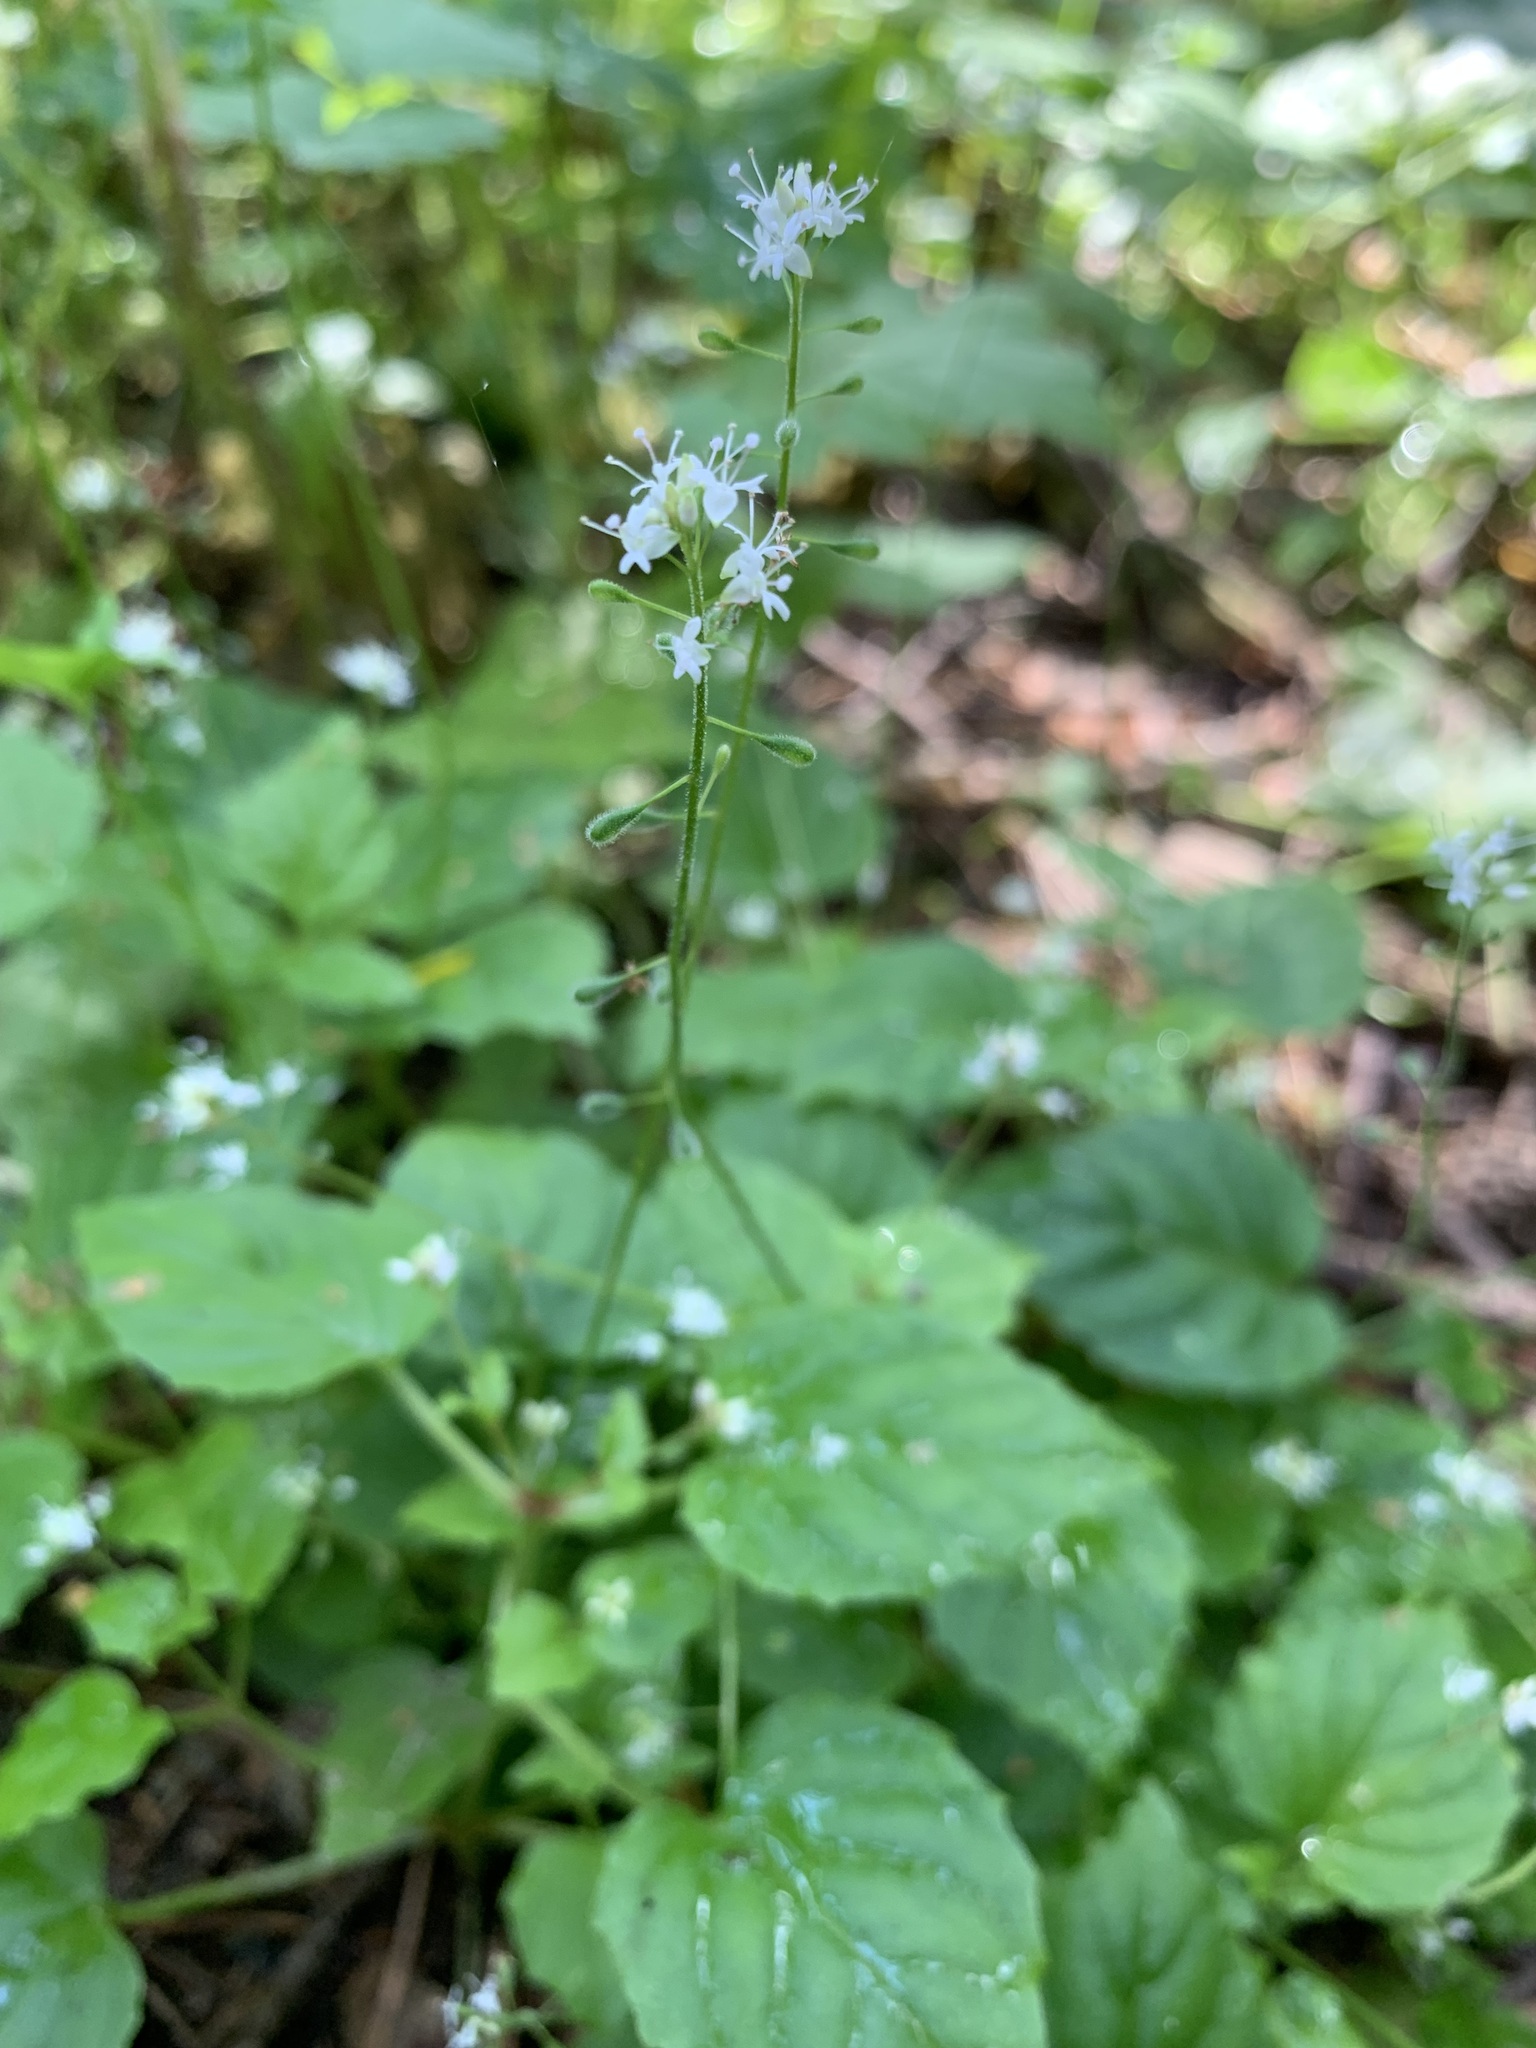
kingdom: Plantae
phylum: Tracheophyta
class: Magnoliopsida
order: Myrtales
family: Onagraceae
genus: Circaea
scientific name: Circaea alpina
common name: Alpine enchanter's-nightshade
